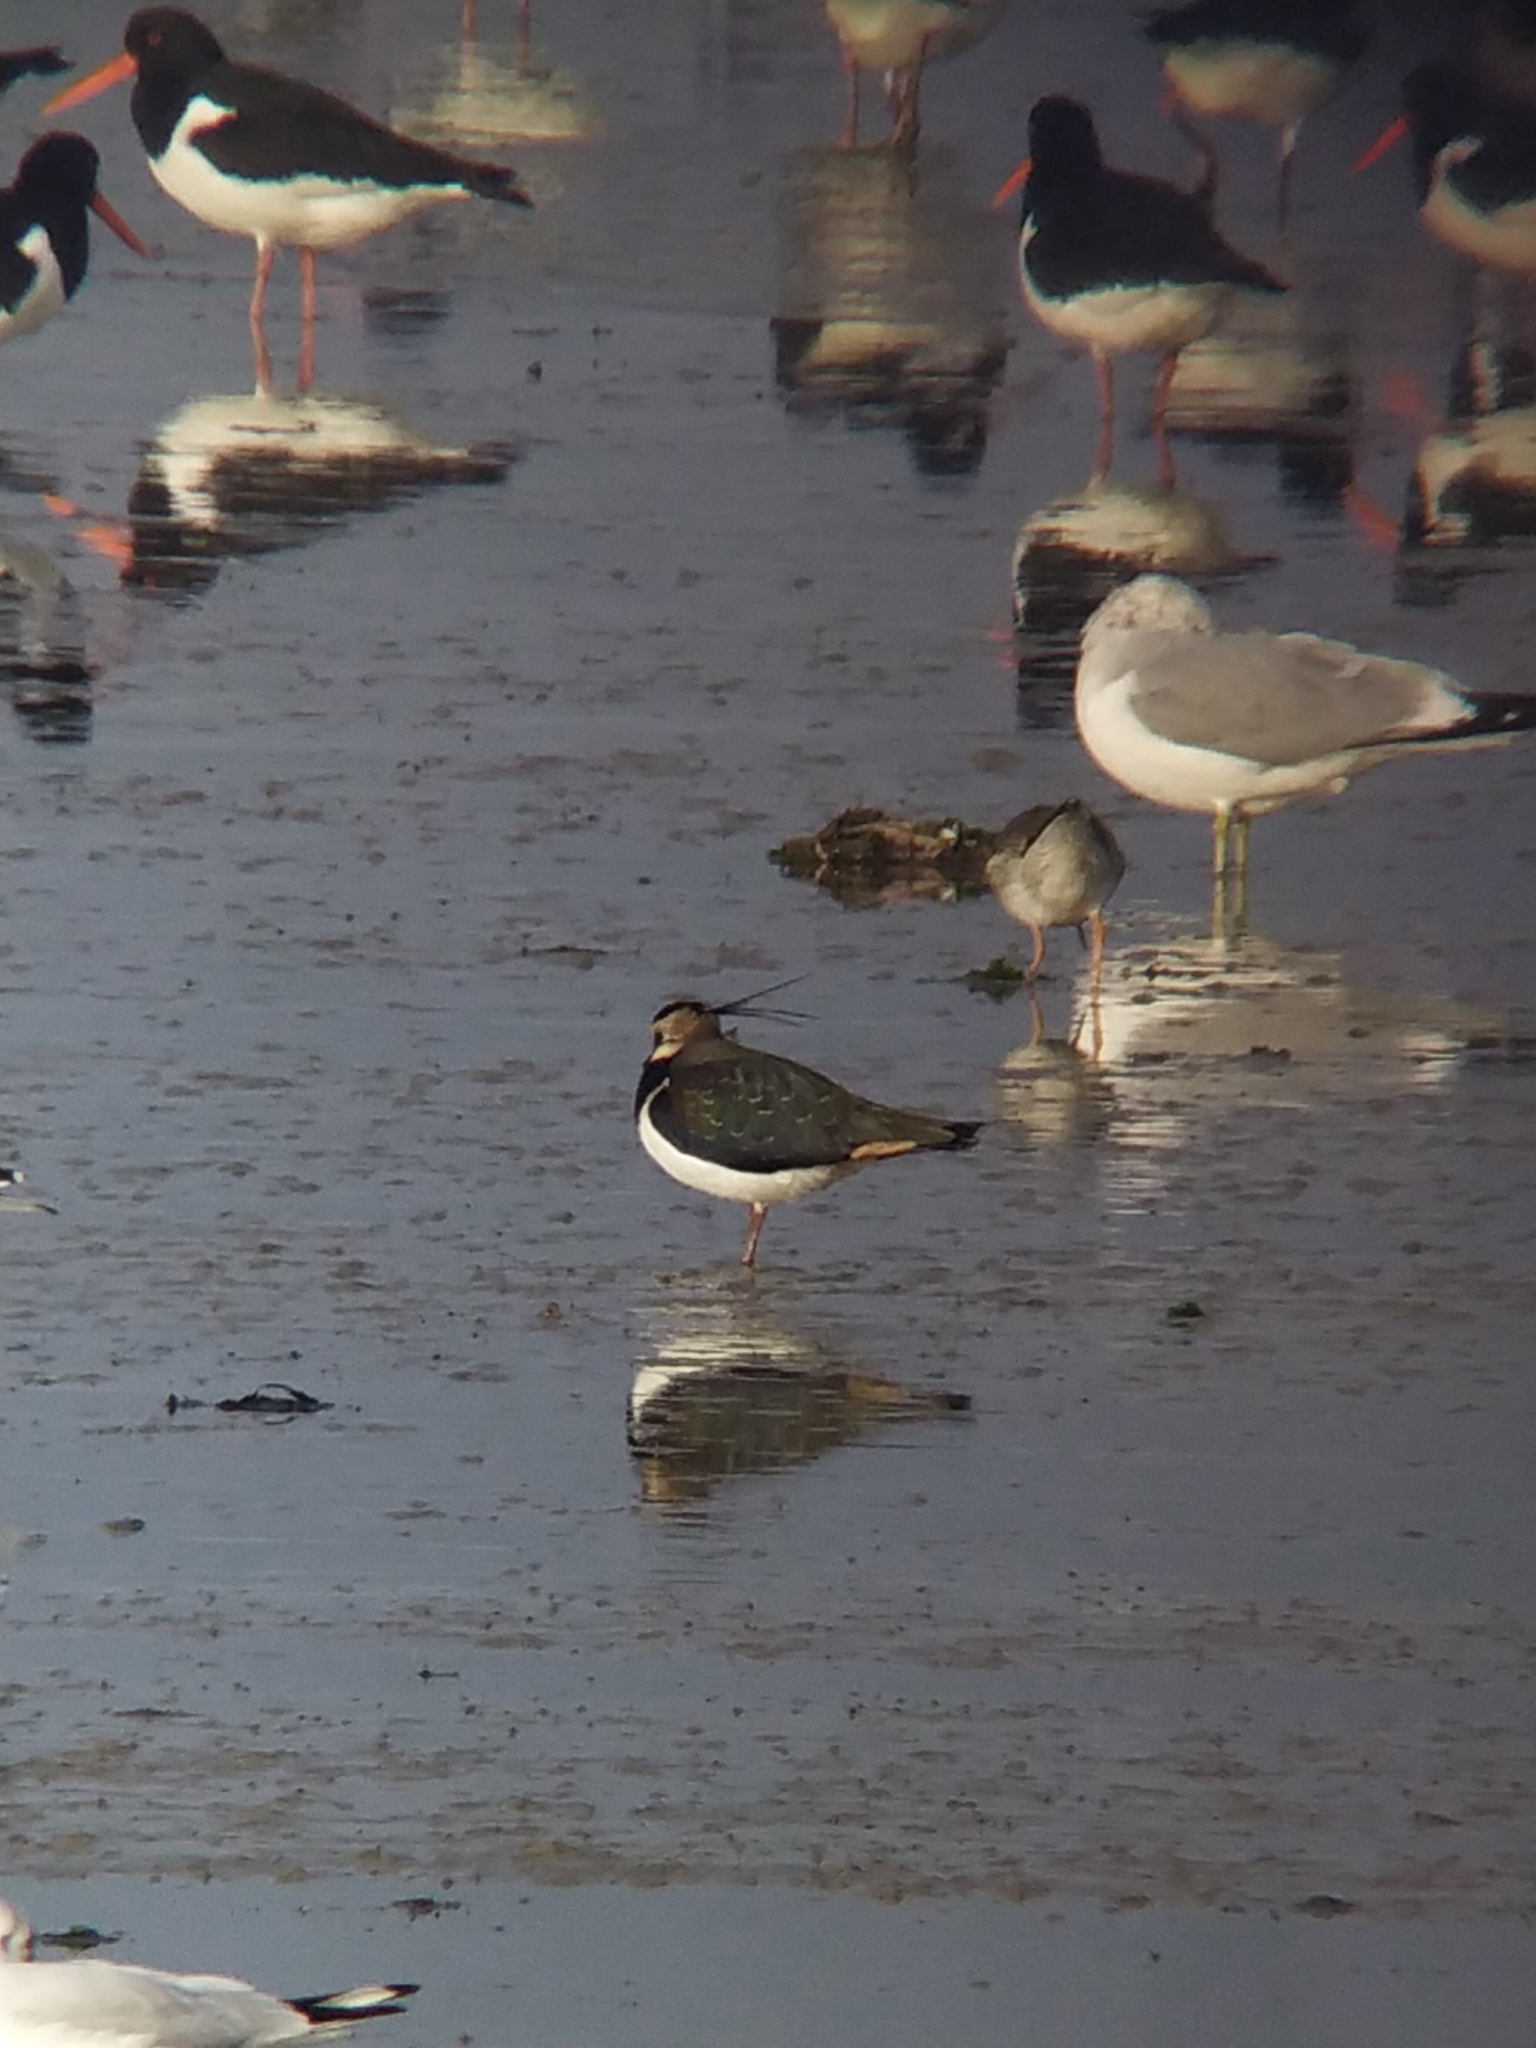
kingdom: Animalia
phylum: Chordata
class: Aves
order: Charadriiformes
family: Charadriidae
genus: Vanellus
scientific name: Vanellus vanellus
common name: Northern lapwing
